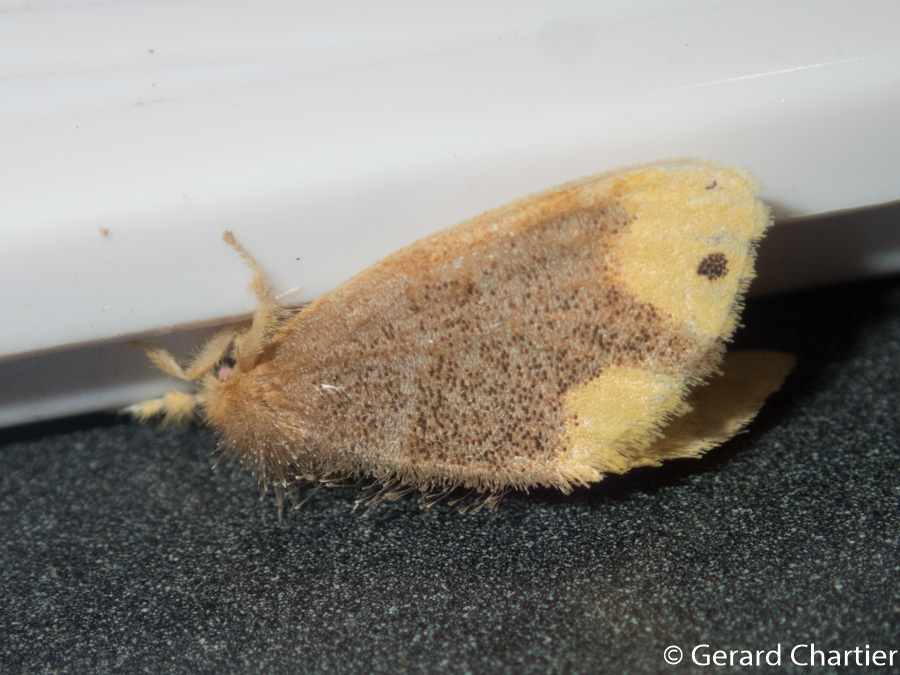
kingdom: Animalia
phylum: Arthropoda
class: Insecta
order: Lepidoptera
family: Erebidae
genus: Arna
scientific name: Arna bipunctapex
